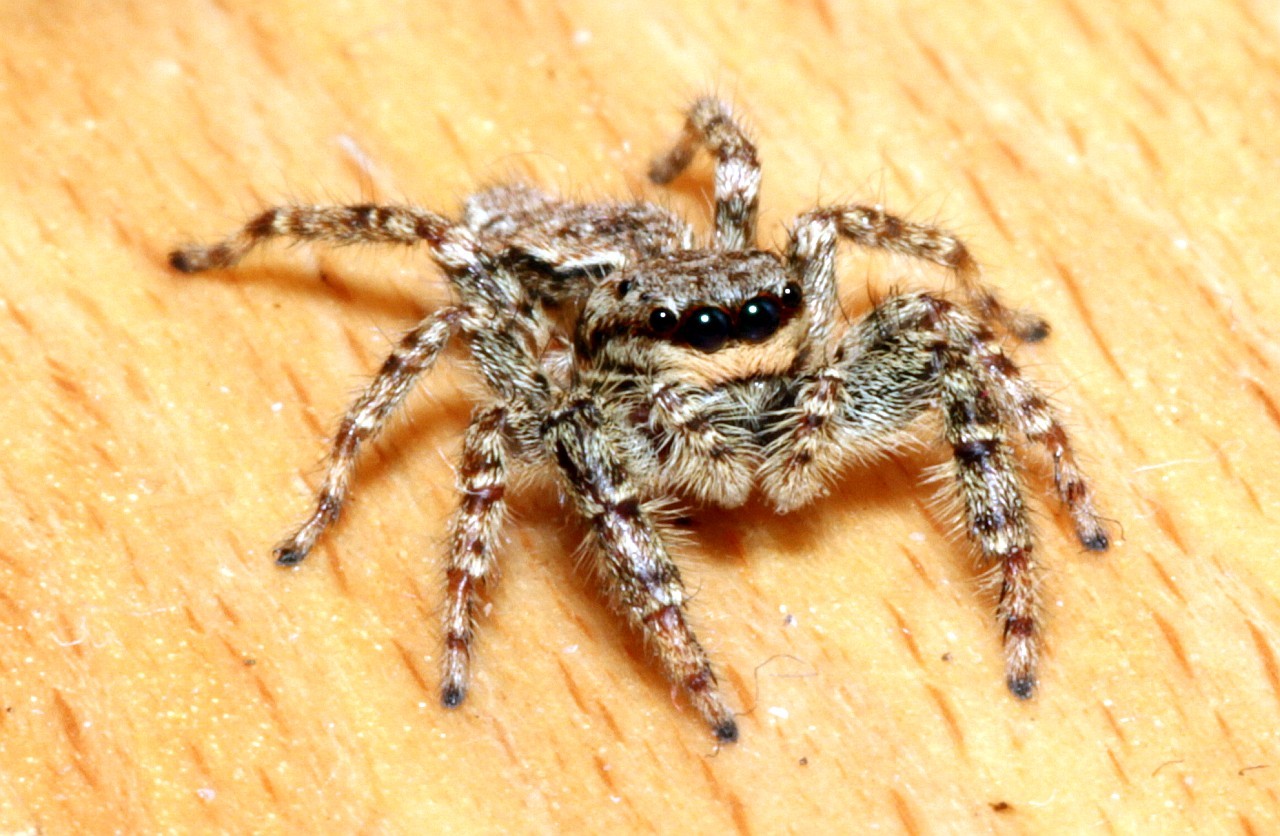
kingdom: Animalia
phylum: Arthropoda
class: Arachnida
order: Araneae
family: Salticidae
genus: Marpissa
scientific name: Marpissa muscosa
